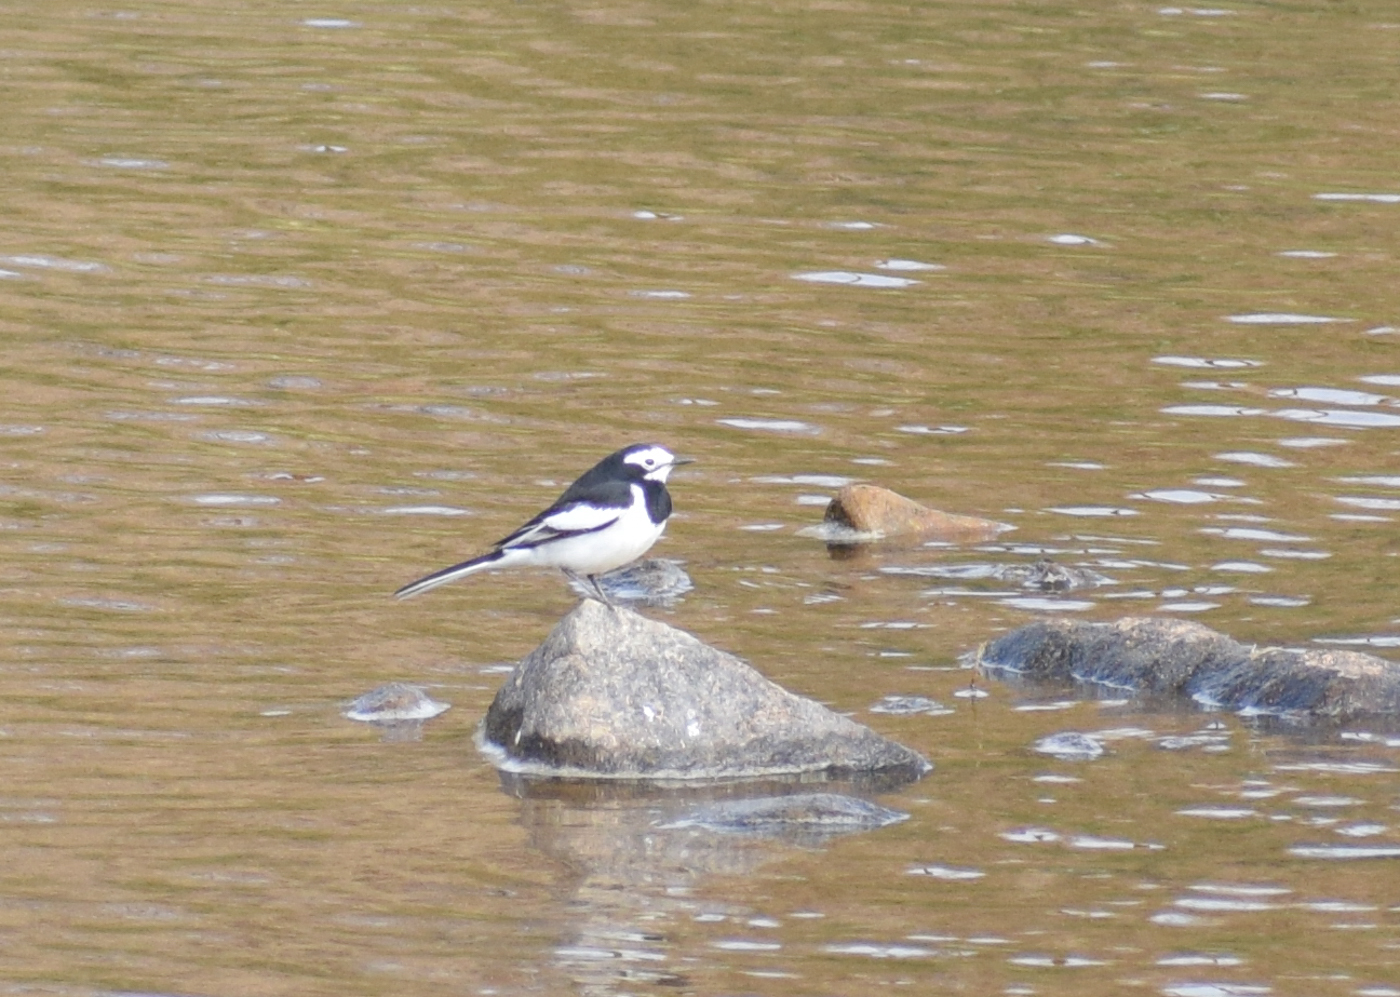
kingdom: Animalia
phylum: Chordata
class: Aves
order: Passeriformes
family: Motacillidae
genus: Motacilla
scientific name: Motacilla alba
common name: White wagtail
